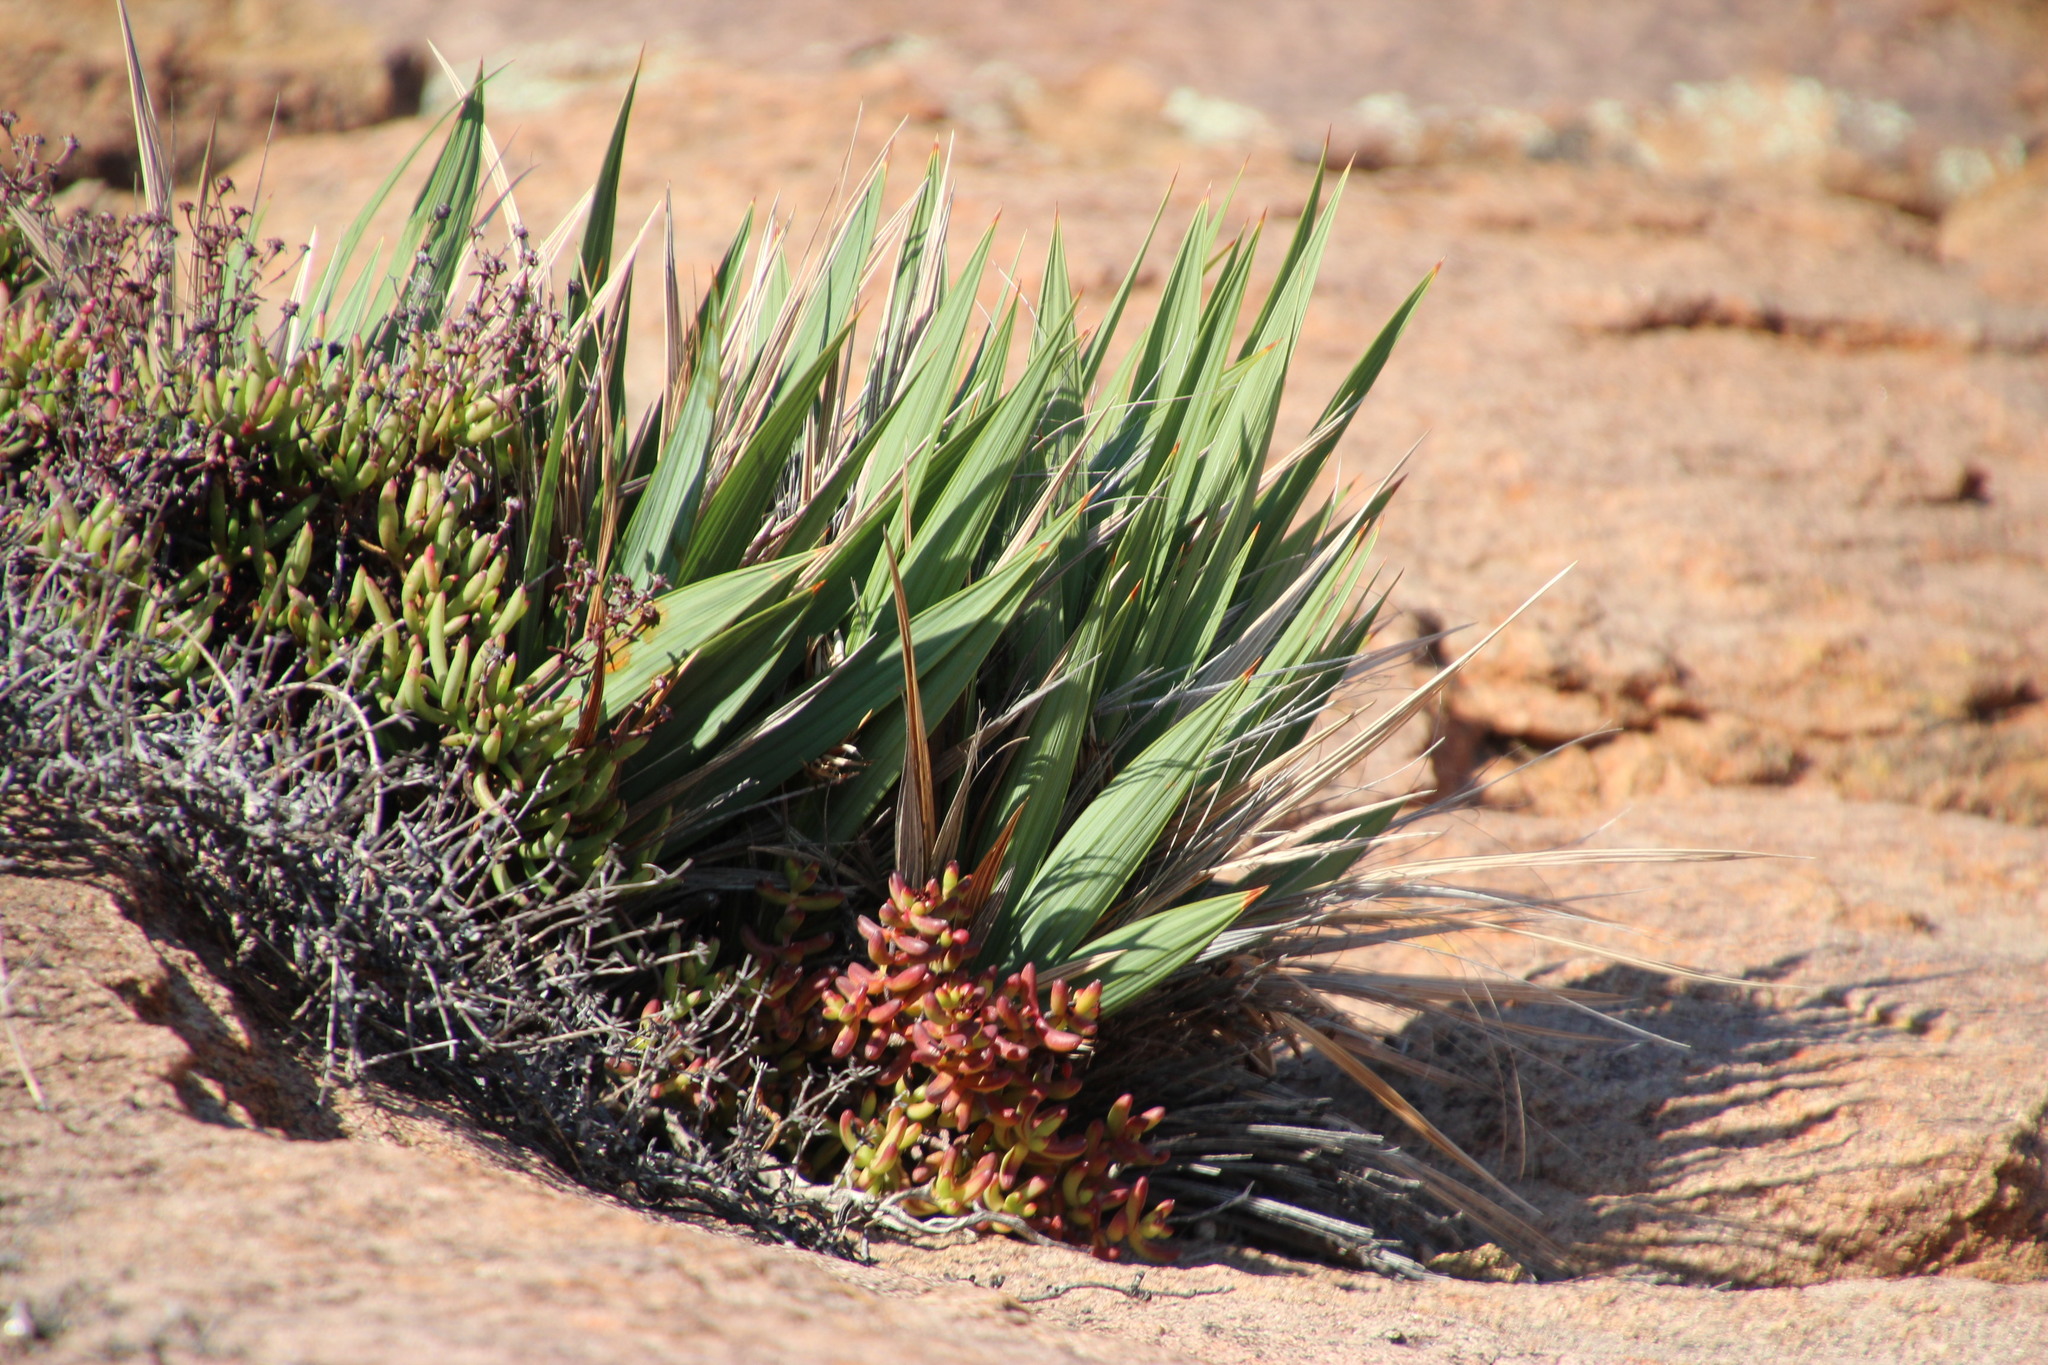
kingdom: Plantae
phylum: Tracheophyta
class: Liliopsida
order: Asparagales
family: Iridaceae
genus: Babiana
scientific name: Babiana dregei
